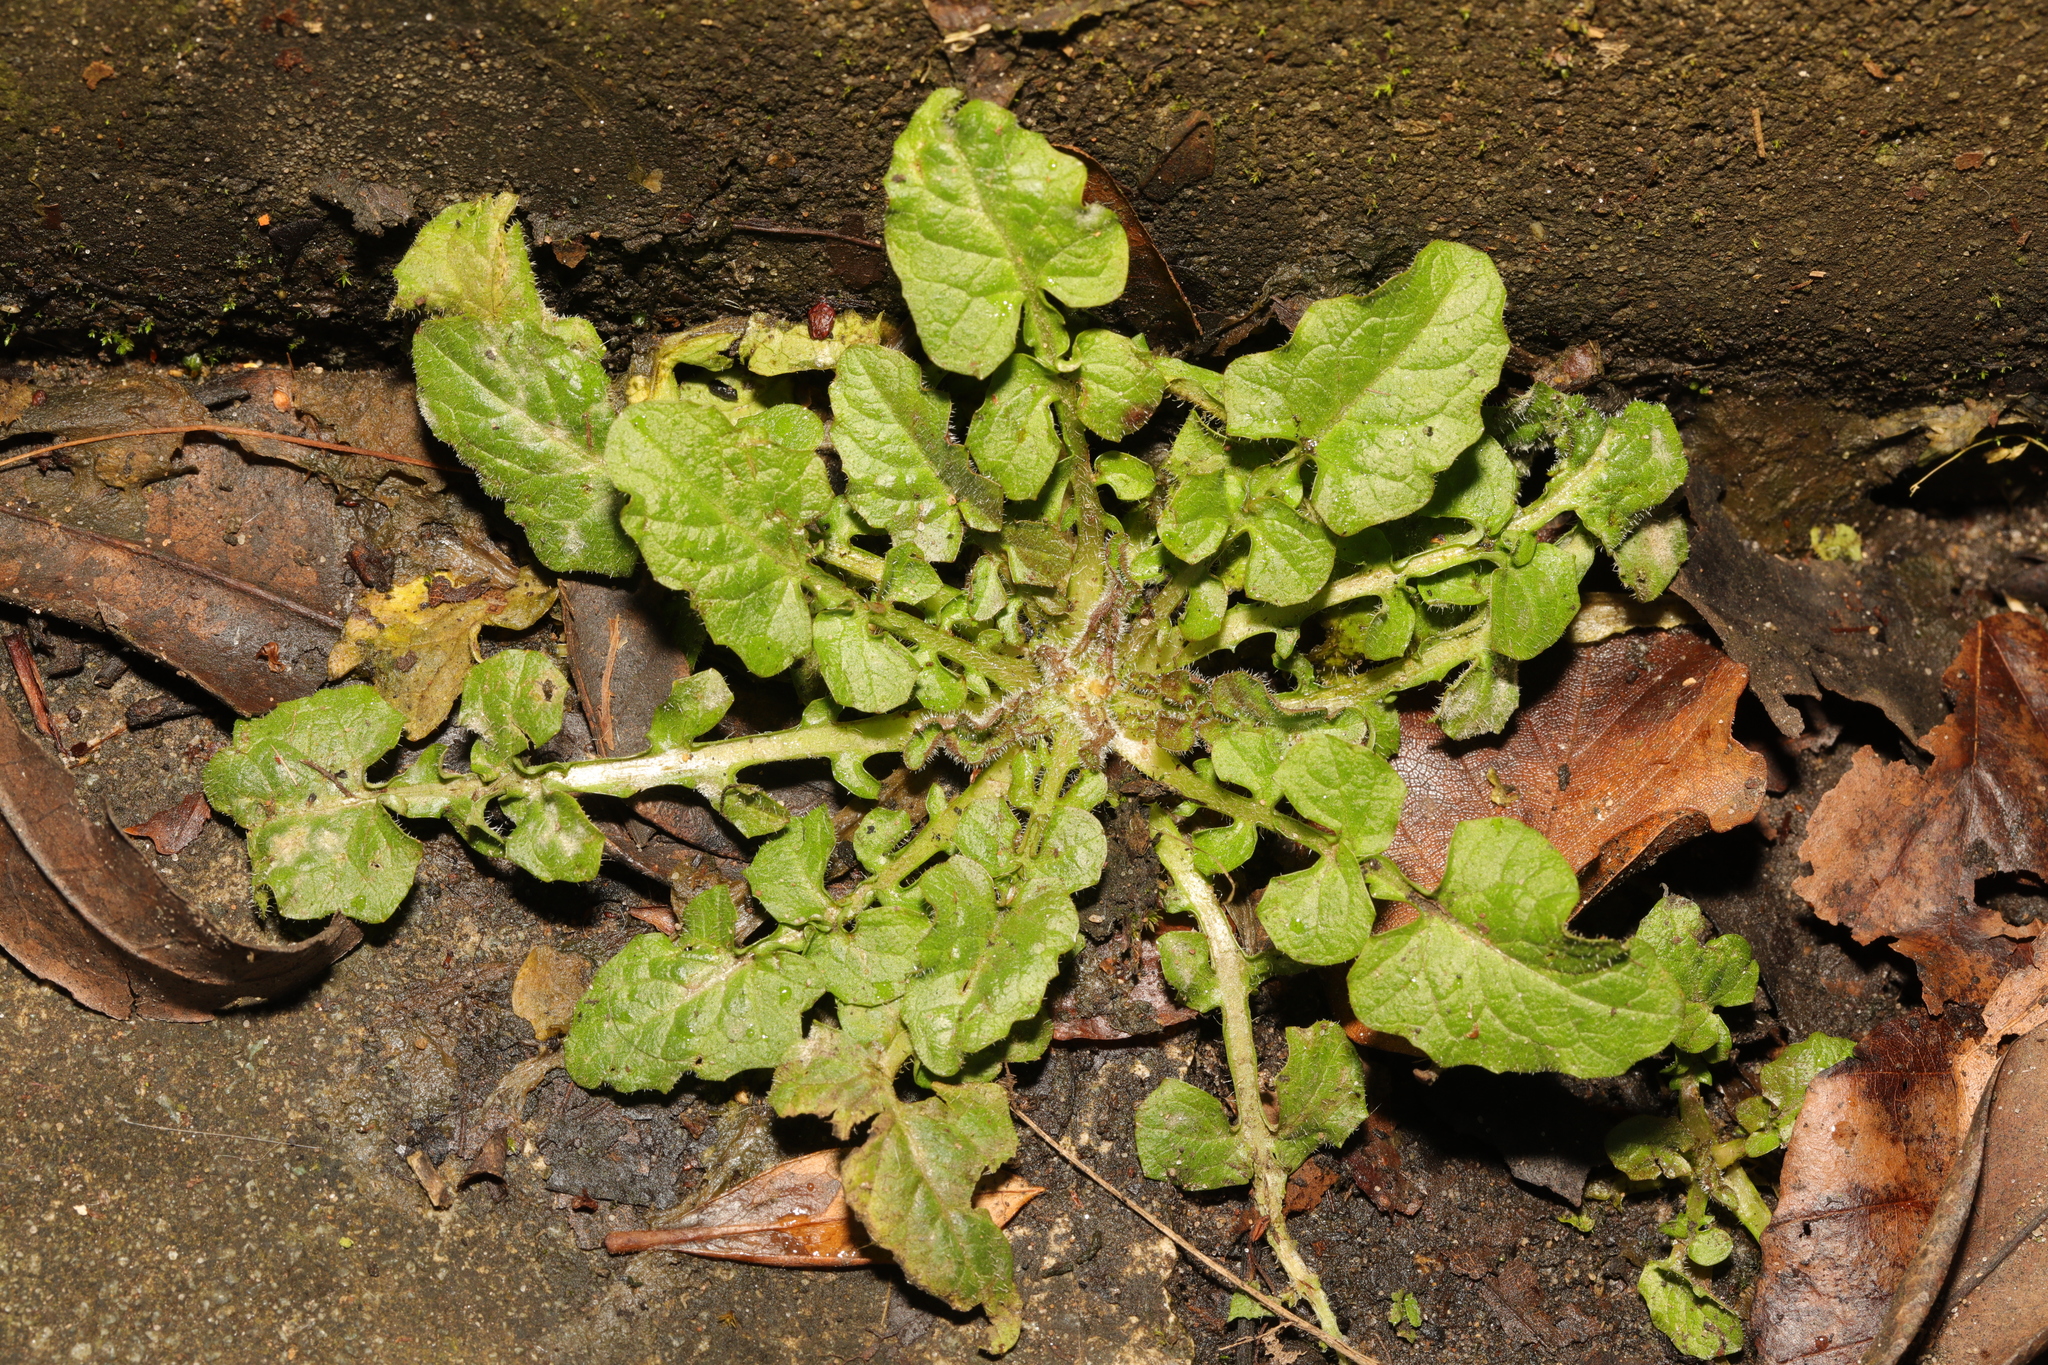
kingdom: Plantae
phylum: Tracheophyta
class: Magnoliopsida
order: Brassicales
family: Brassicaceae
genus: Sisymbrium
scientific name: Sisymbrium officinale
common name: Hedge mustard
